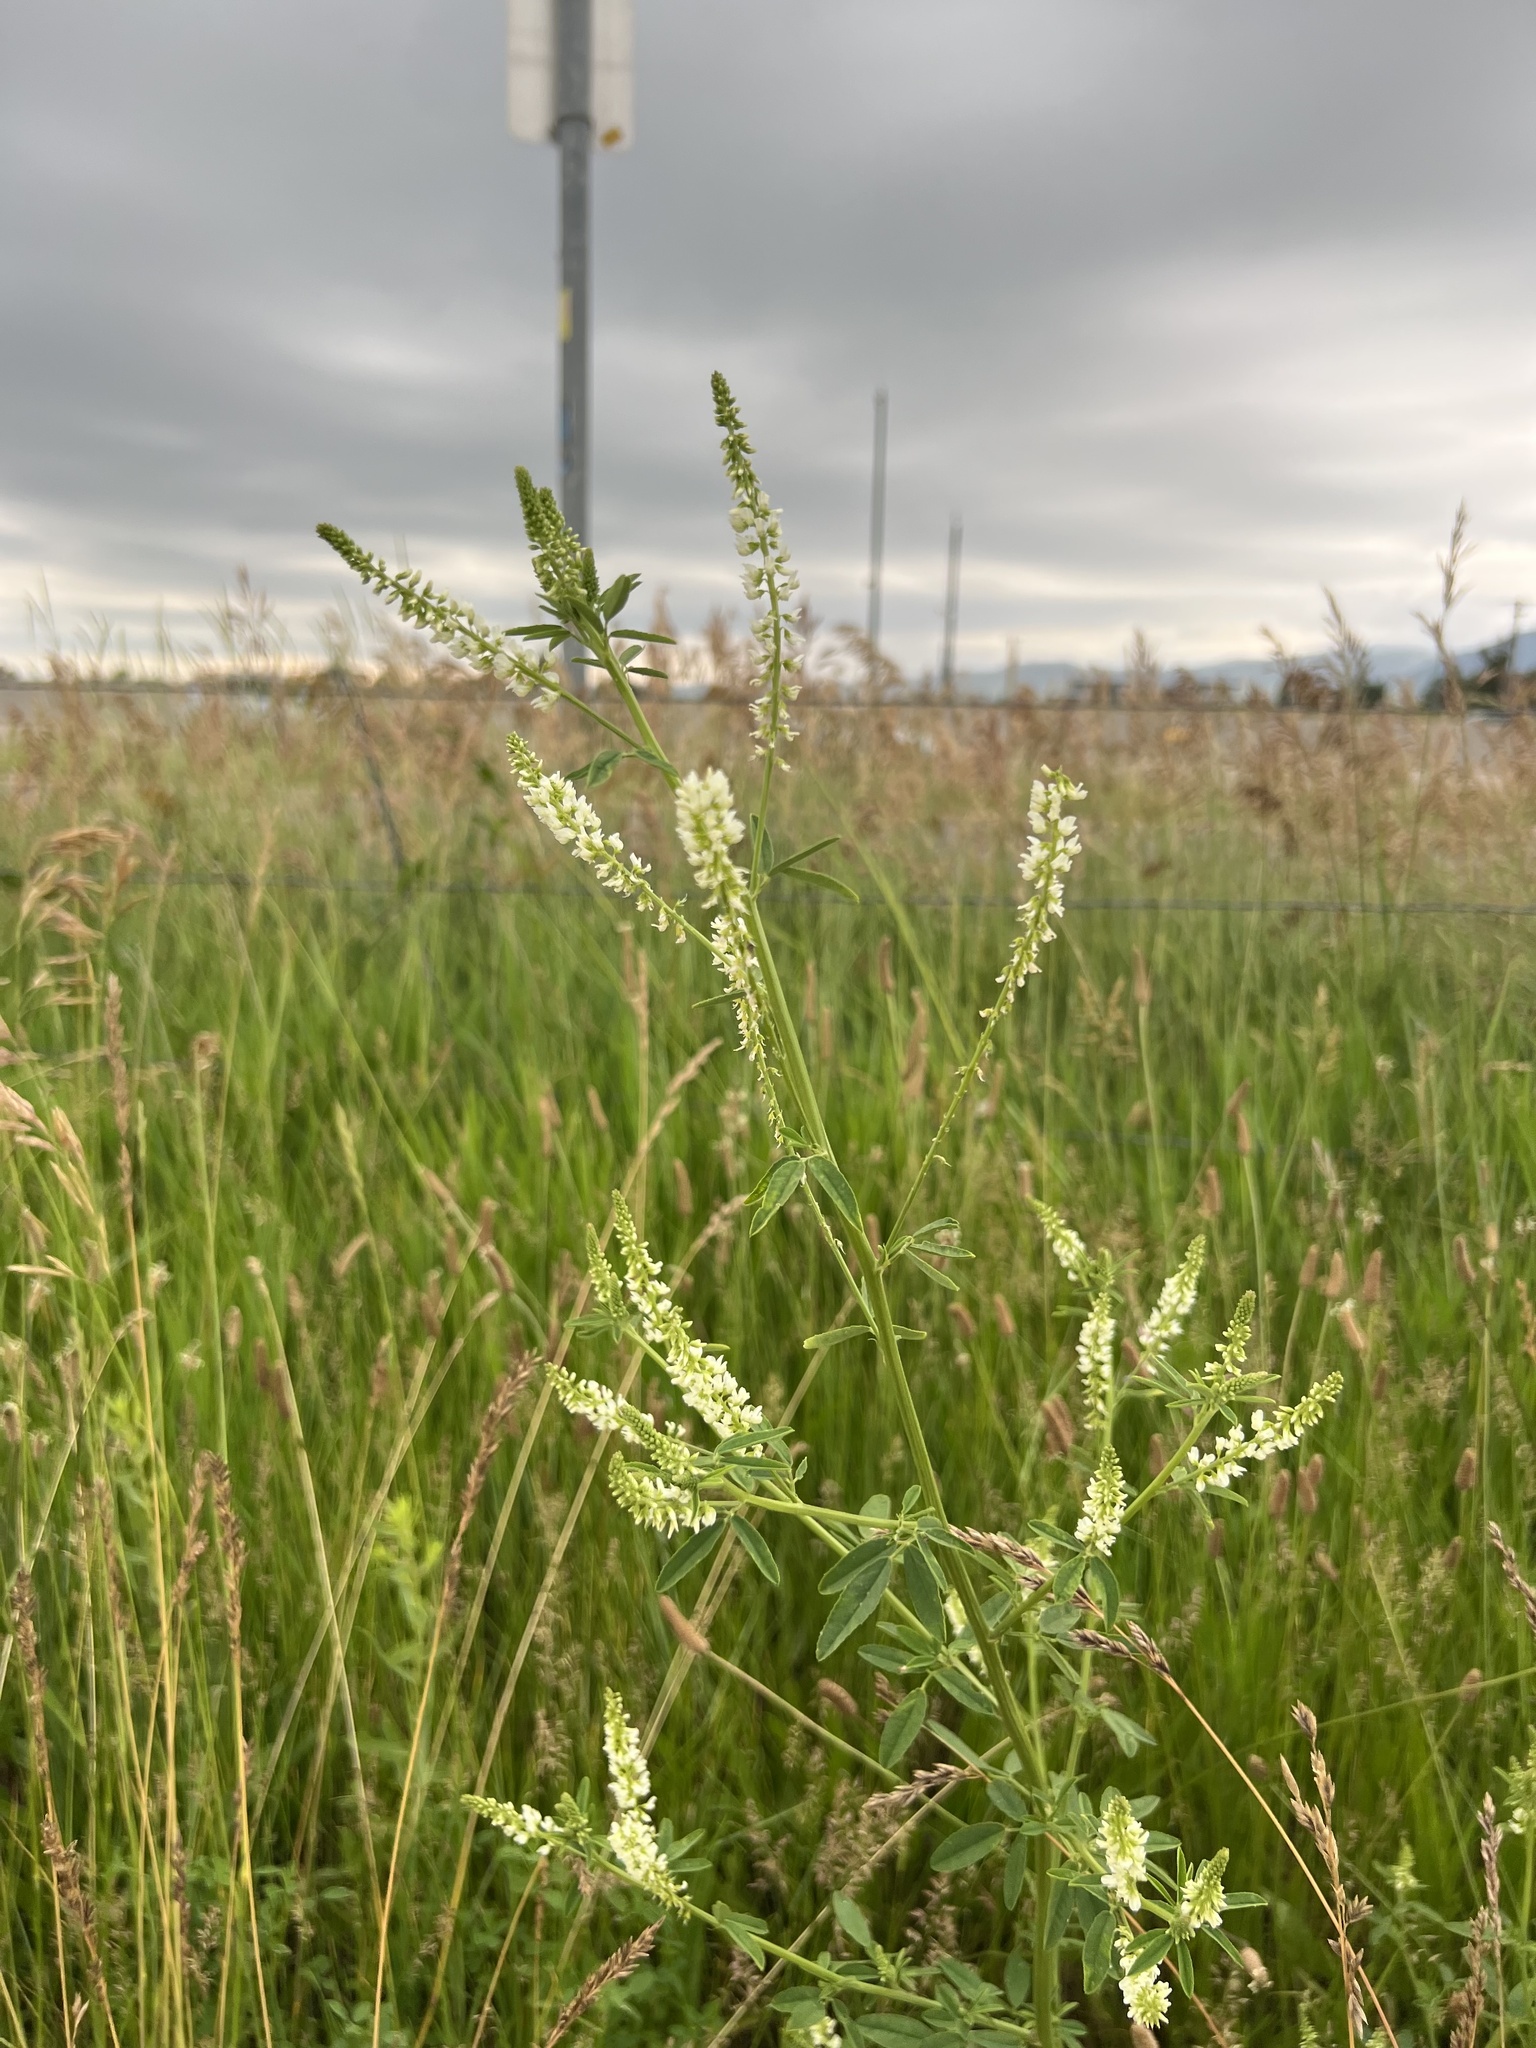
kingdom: Plantae
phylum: Tracheophyta
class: Magnoliopsida
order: Fabales
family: Fabaceae
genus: Melilotus
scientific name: Melilotus albus
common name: White melilot
